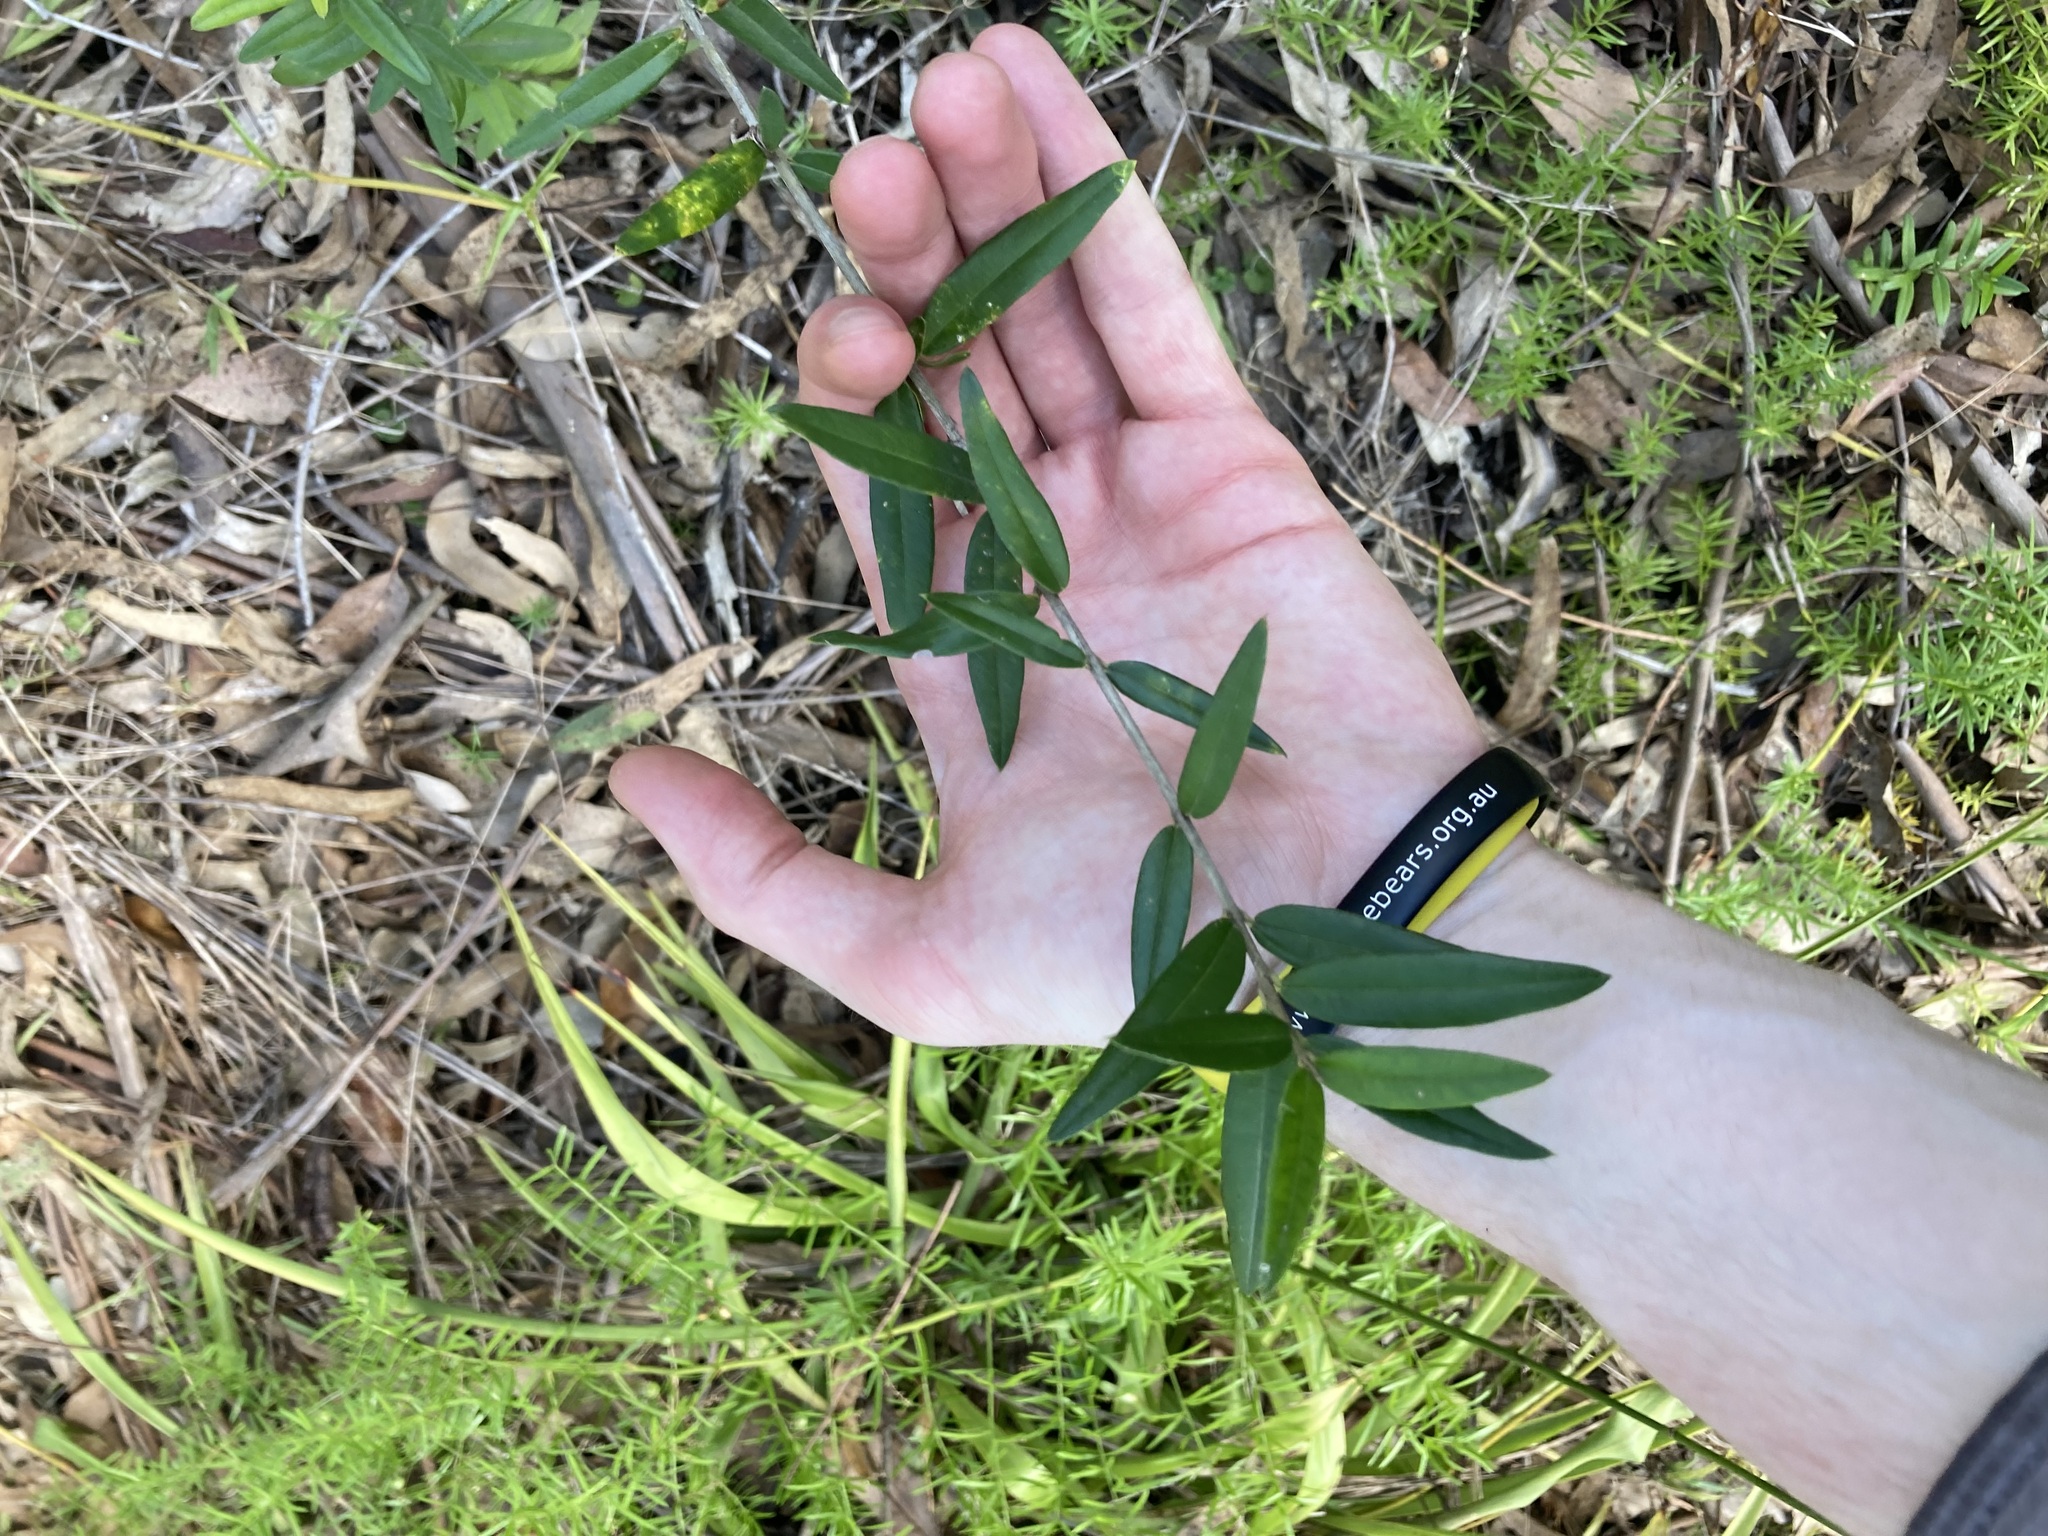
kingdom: Plantae
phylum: Tracheophyta
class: Magnoliopsida
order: Lamiales
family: Oleaceae
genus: Olea
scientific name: Olea europaea
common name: Olive
